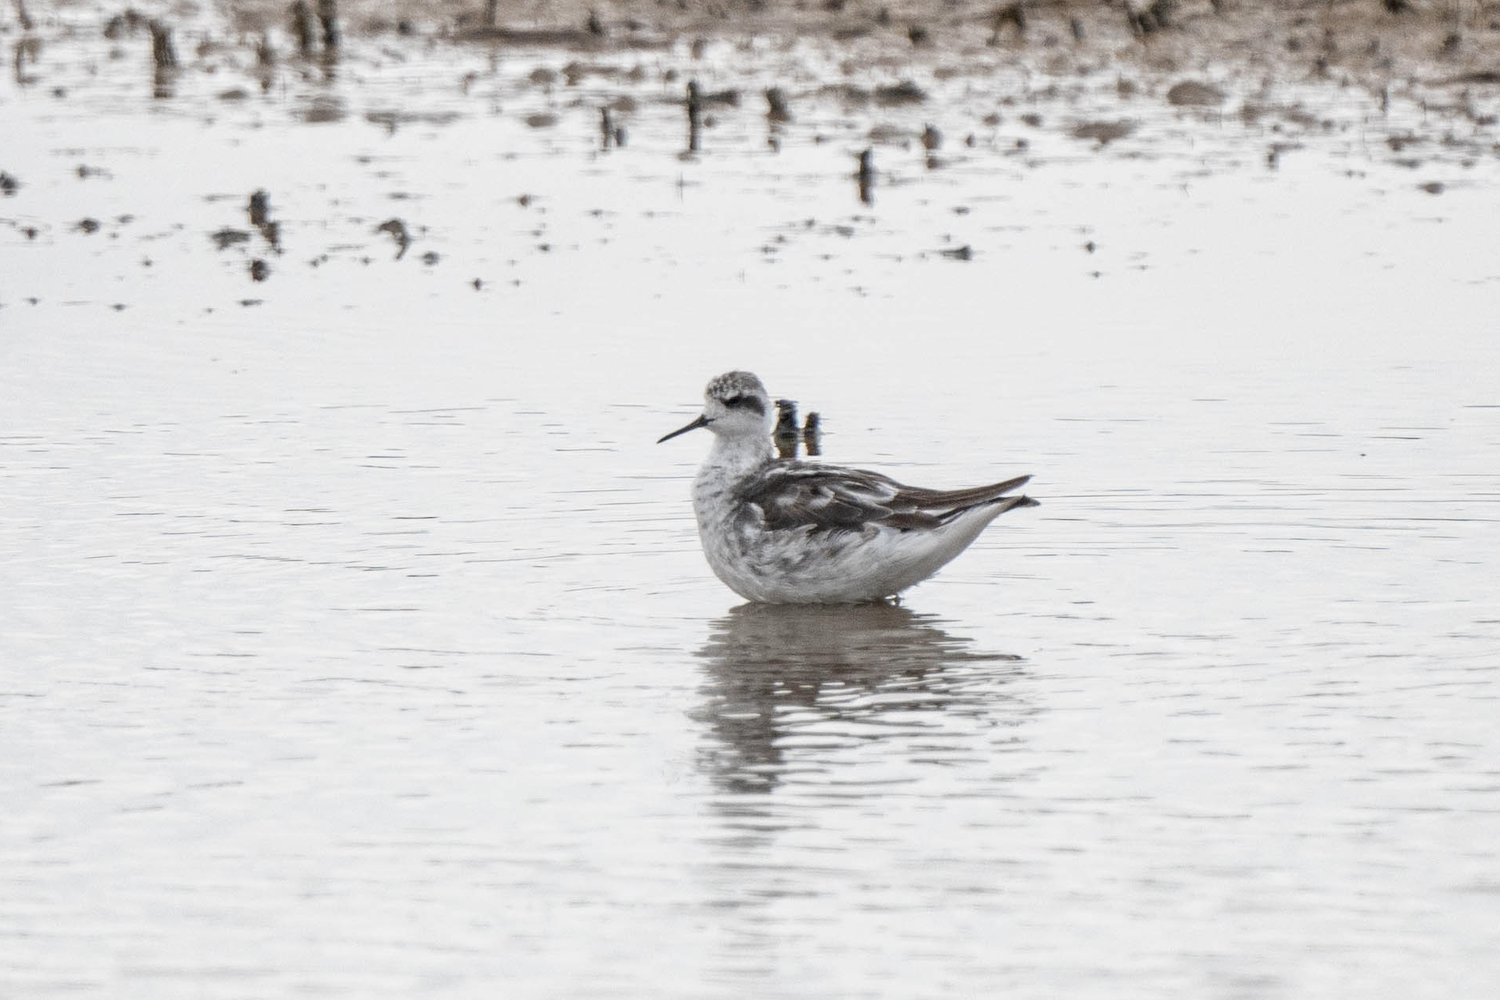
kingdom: Animalia
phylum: Chordata
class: Aves
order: Charadriiformes
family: Scolopacidae
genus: Phalaropus
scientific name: Phalaropus lobatus
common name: Red-necked phalarope
